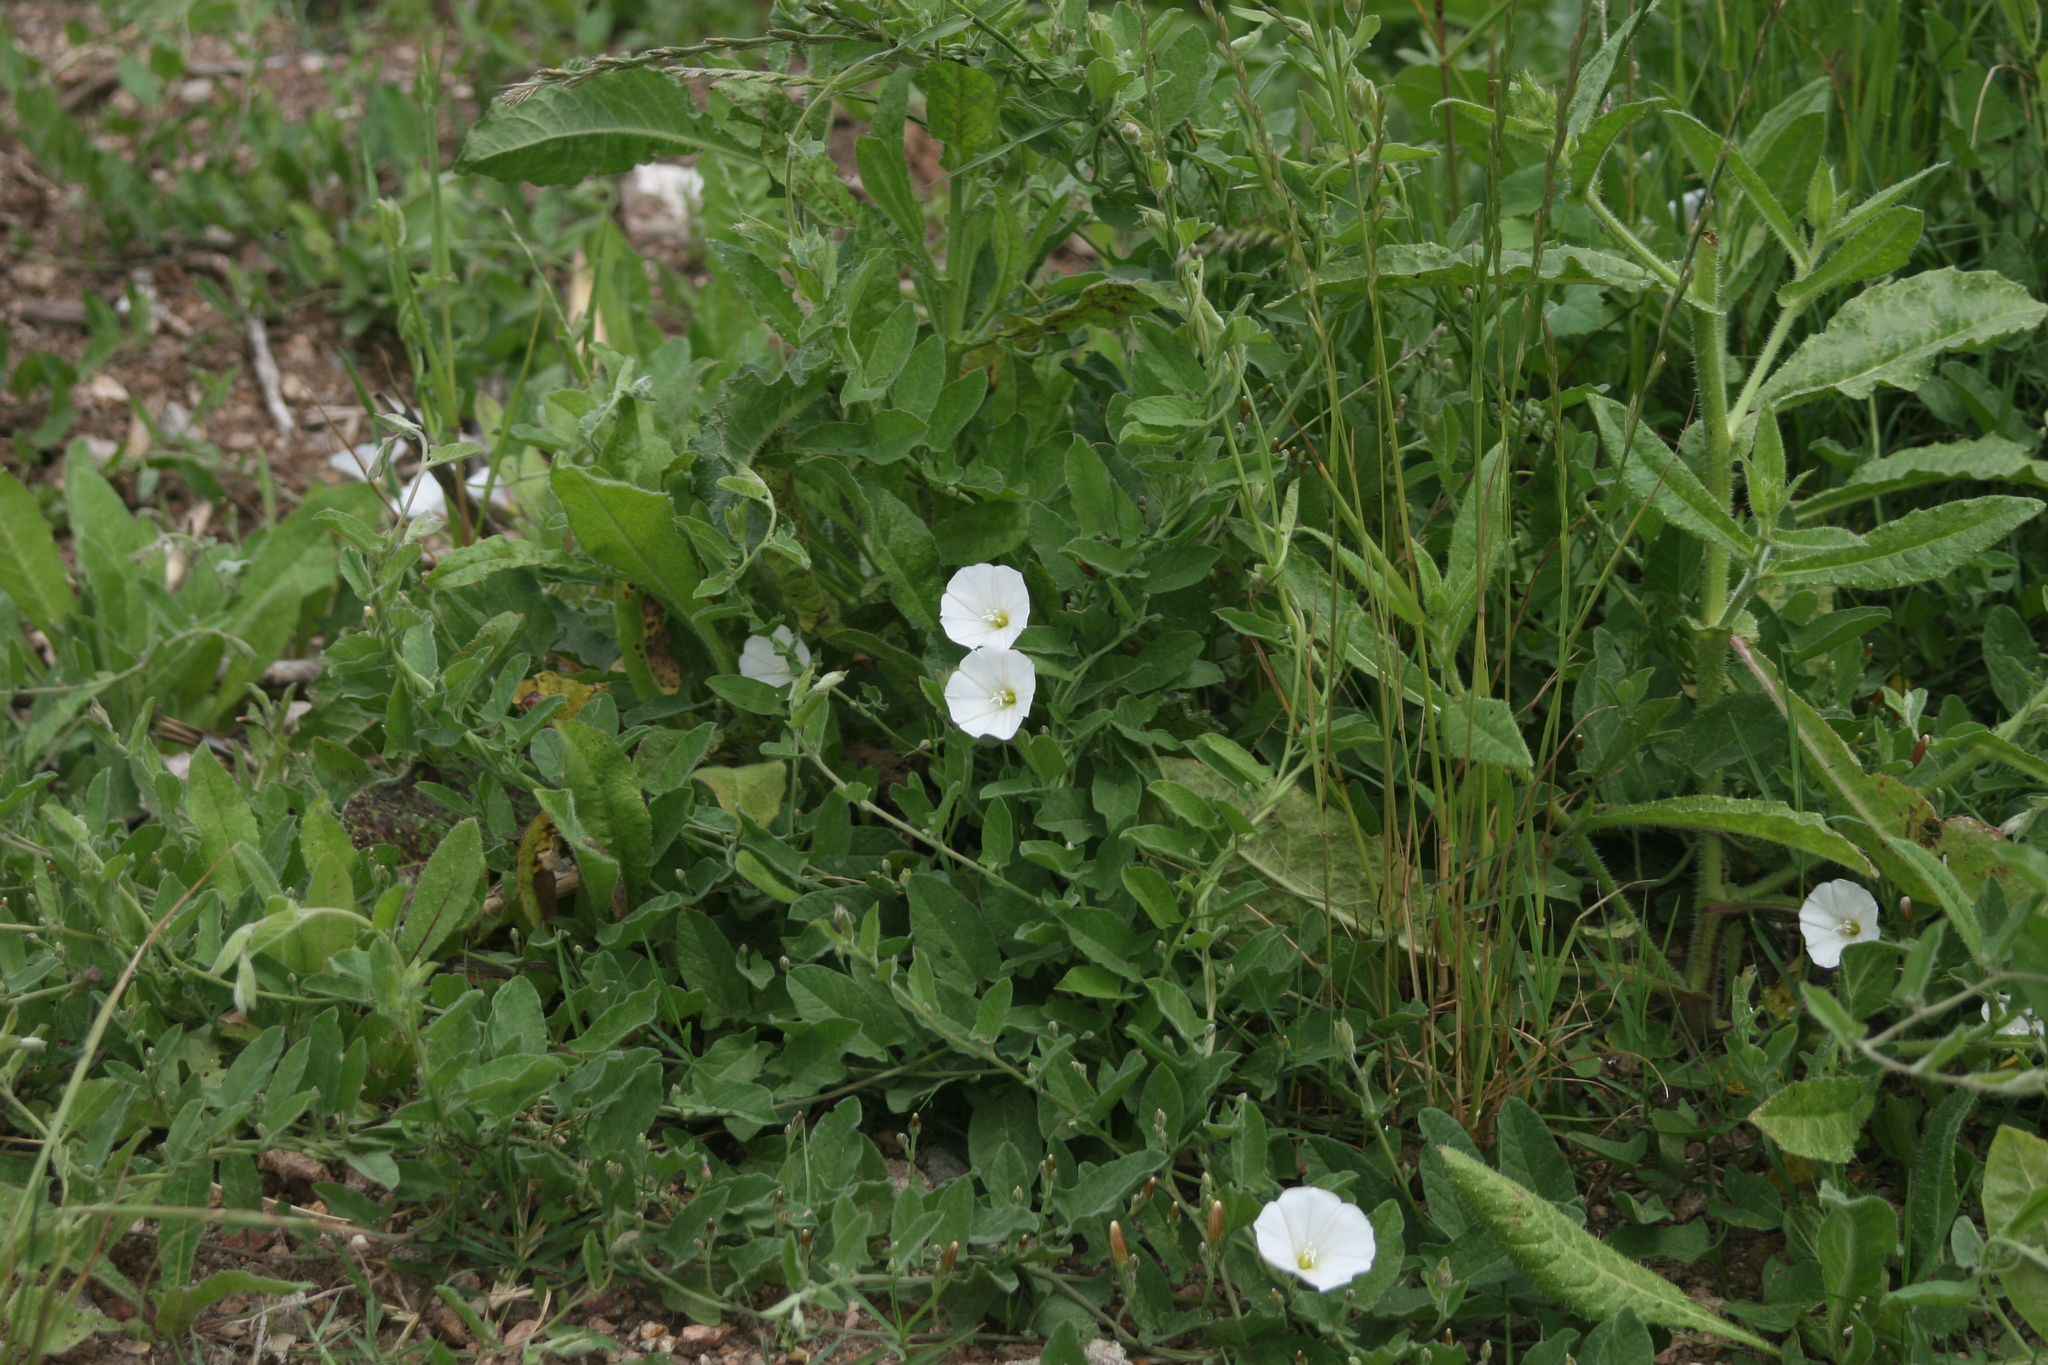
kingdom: Plantae
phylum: Tracheophyta
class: Magnoliopsida
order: Solanales
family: Convolvulaceae
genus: Convolvulus
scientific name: Convolvulus arvensis
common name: Field bindweed
